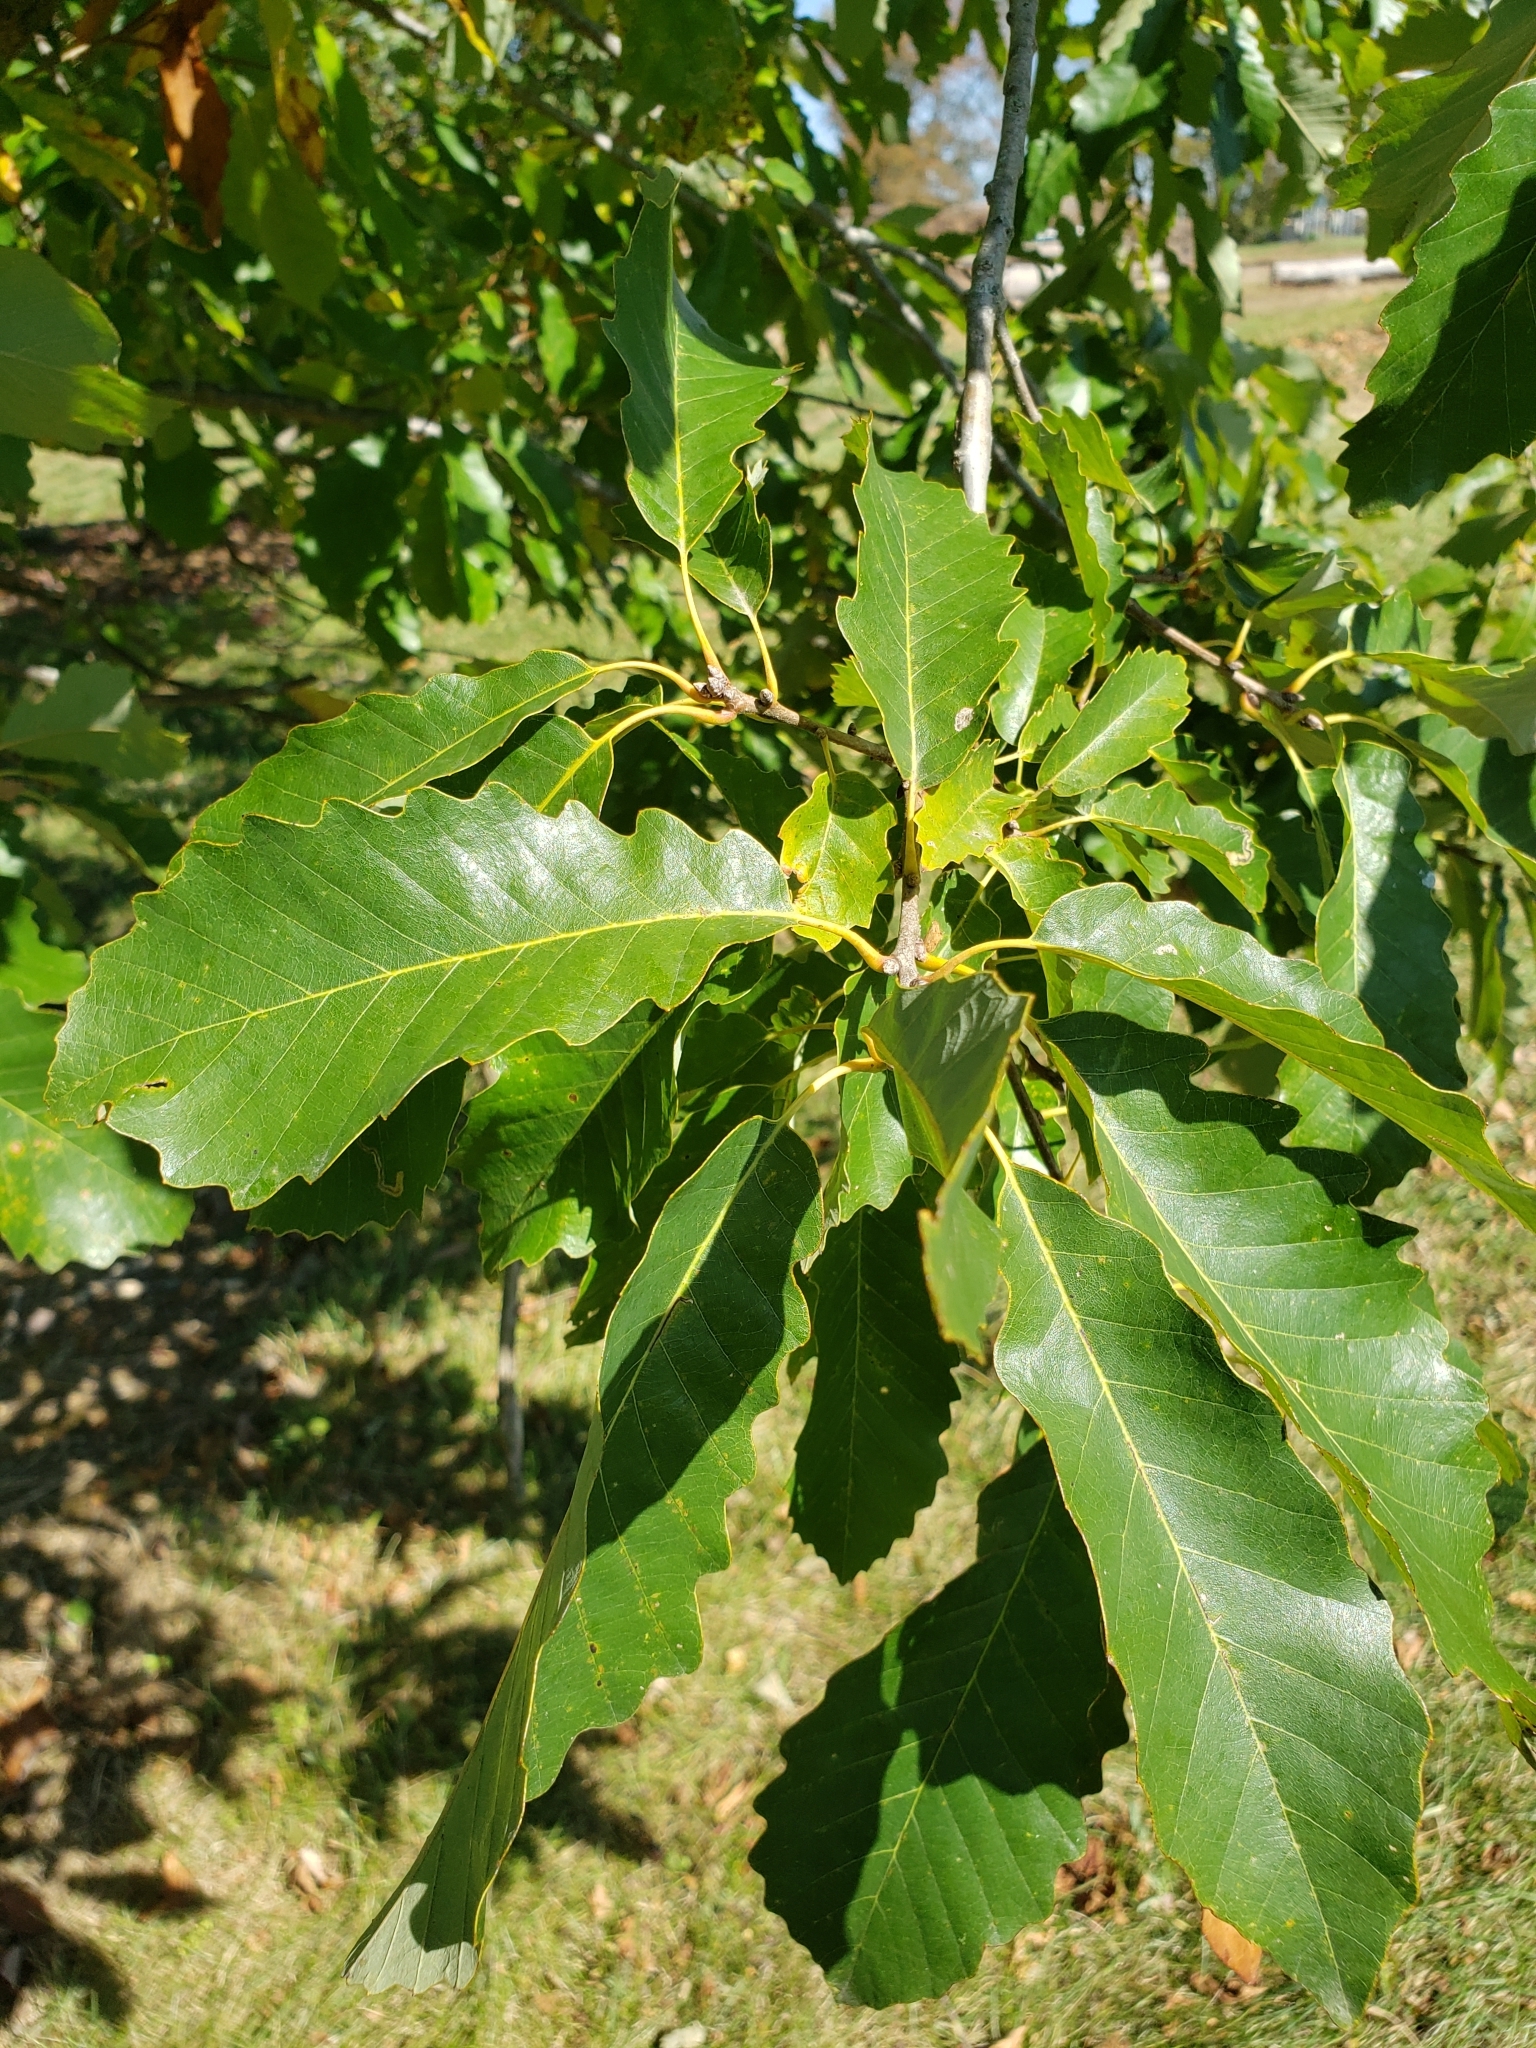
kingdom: Plantae
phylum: Tracheophyta
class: Magnoliopsida
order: Fagales
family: Fagaceae
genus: Quercus
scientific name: Quercus muehlenbergii
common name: Chinkapin oak
